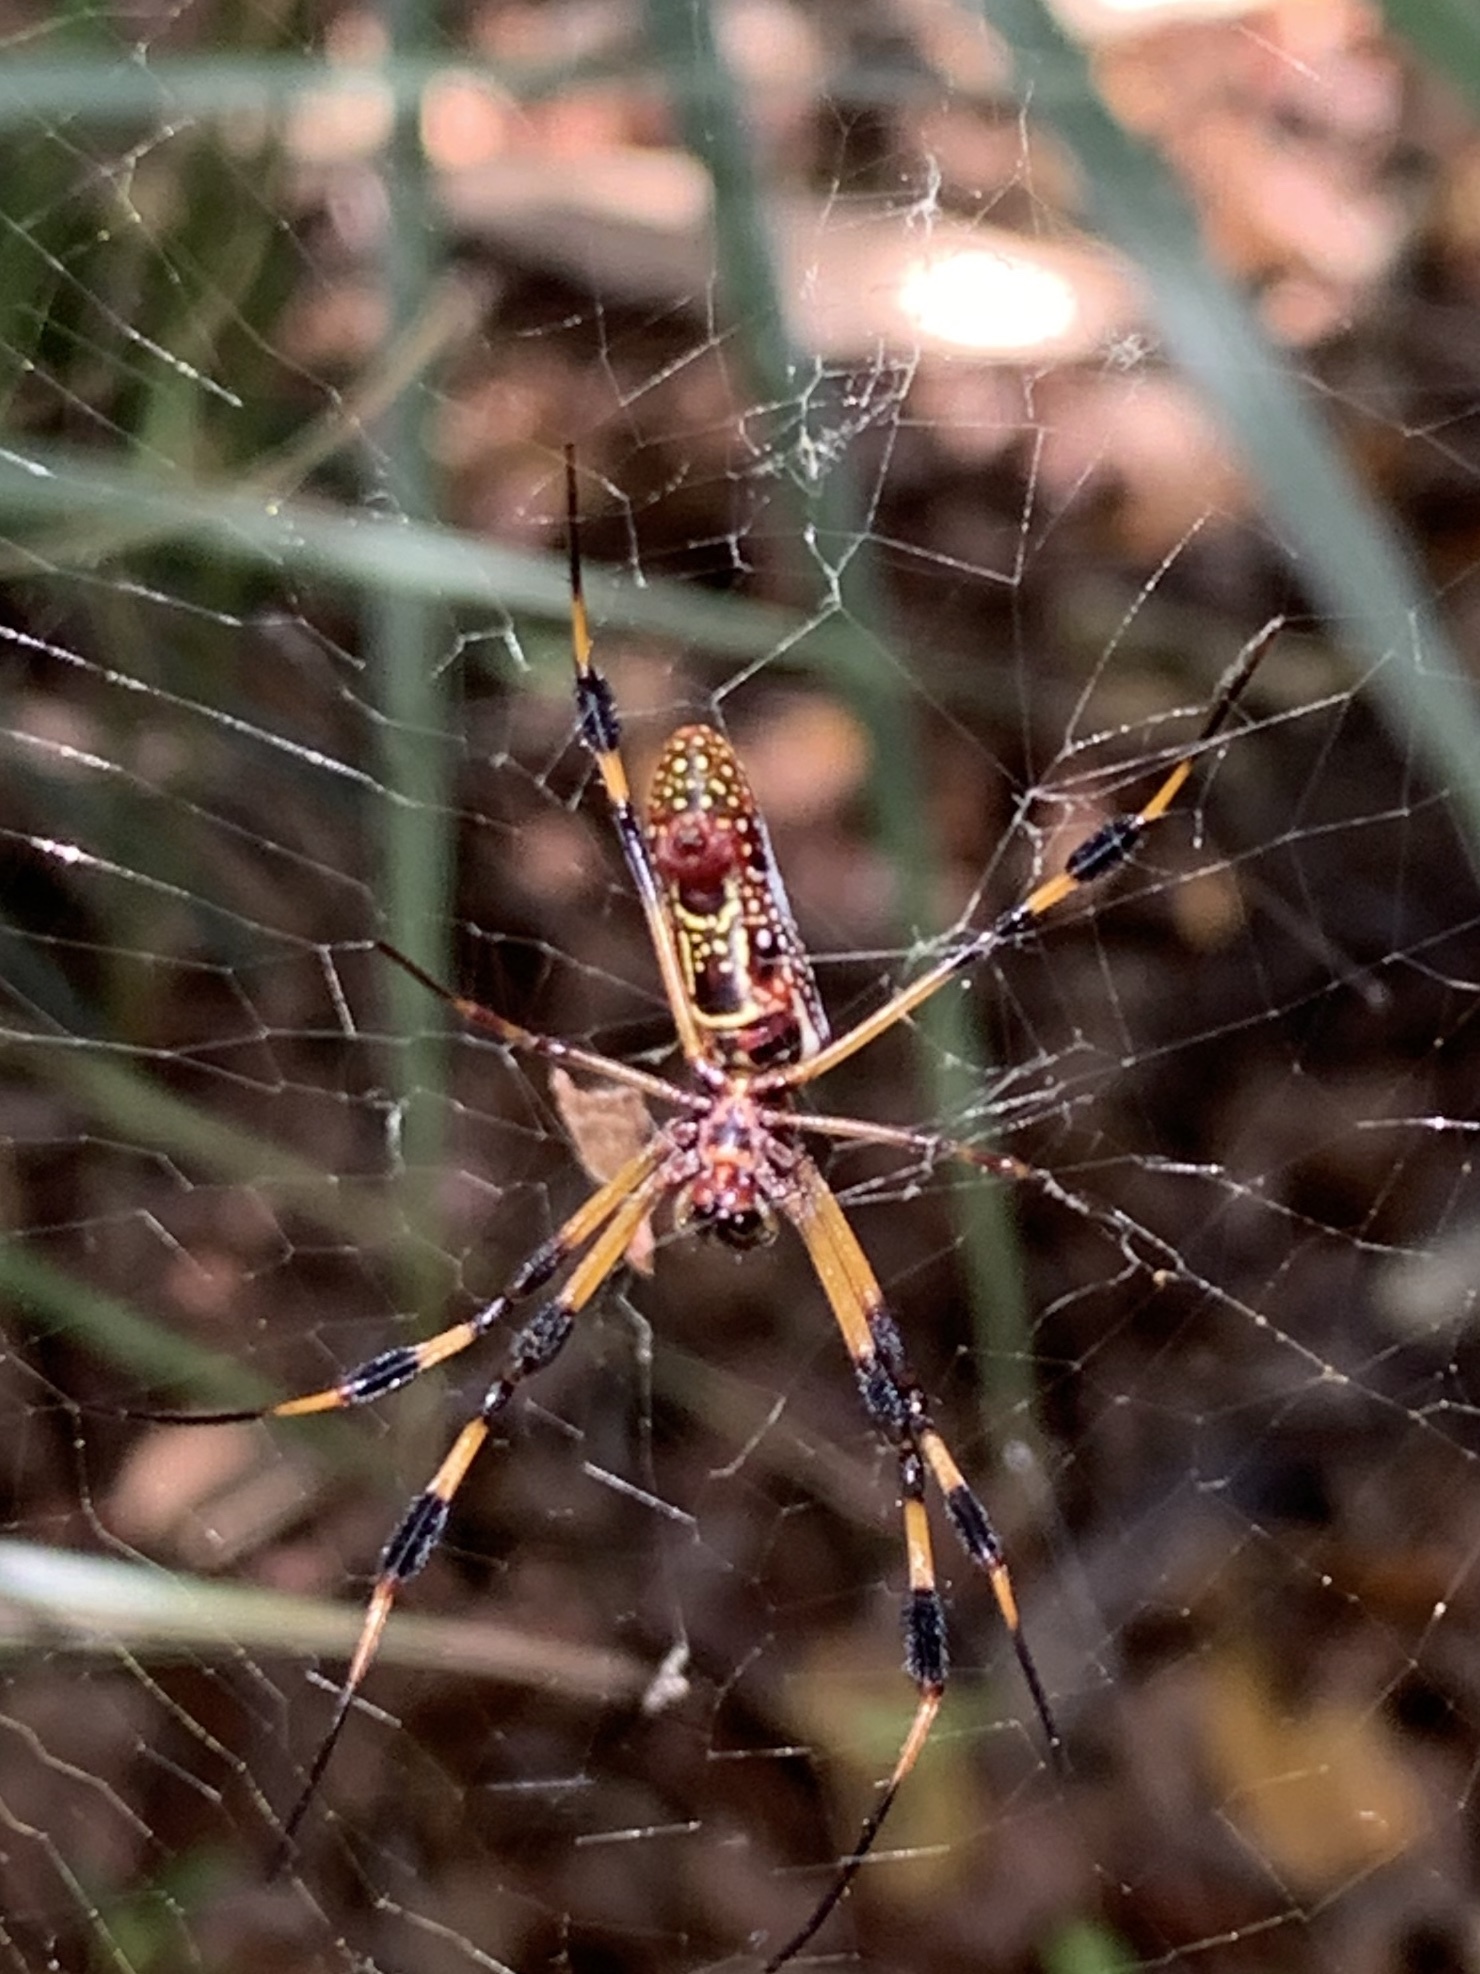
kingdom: Animalia
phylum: Arthropoda
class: Arachnida
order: Araneae
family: Araneidae
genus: Trichonephila
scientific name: Trichonephila clavipes
